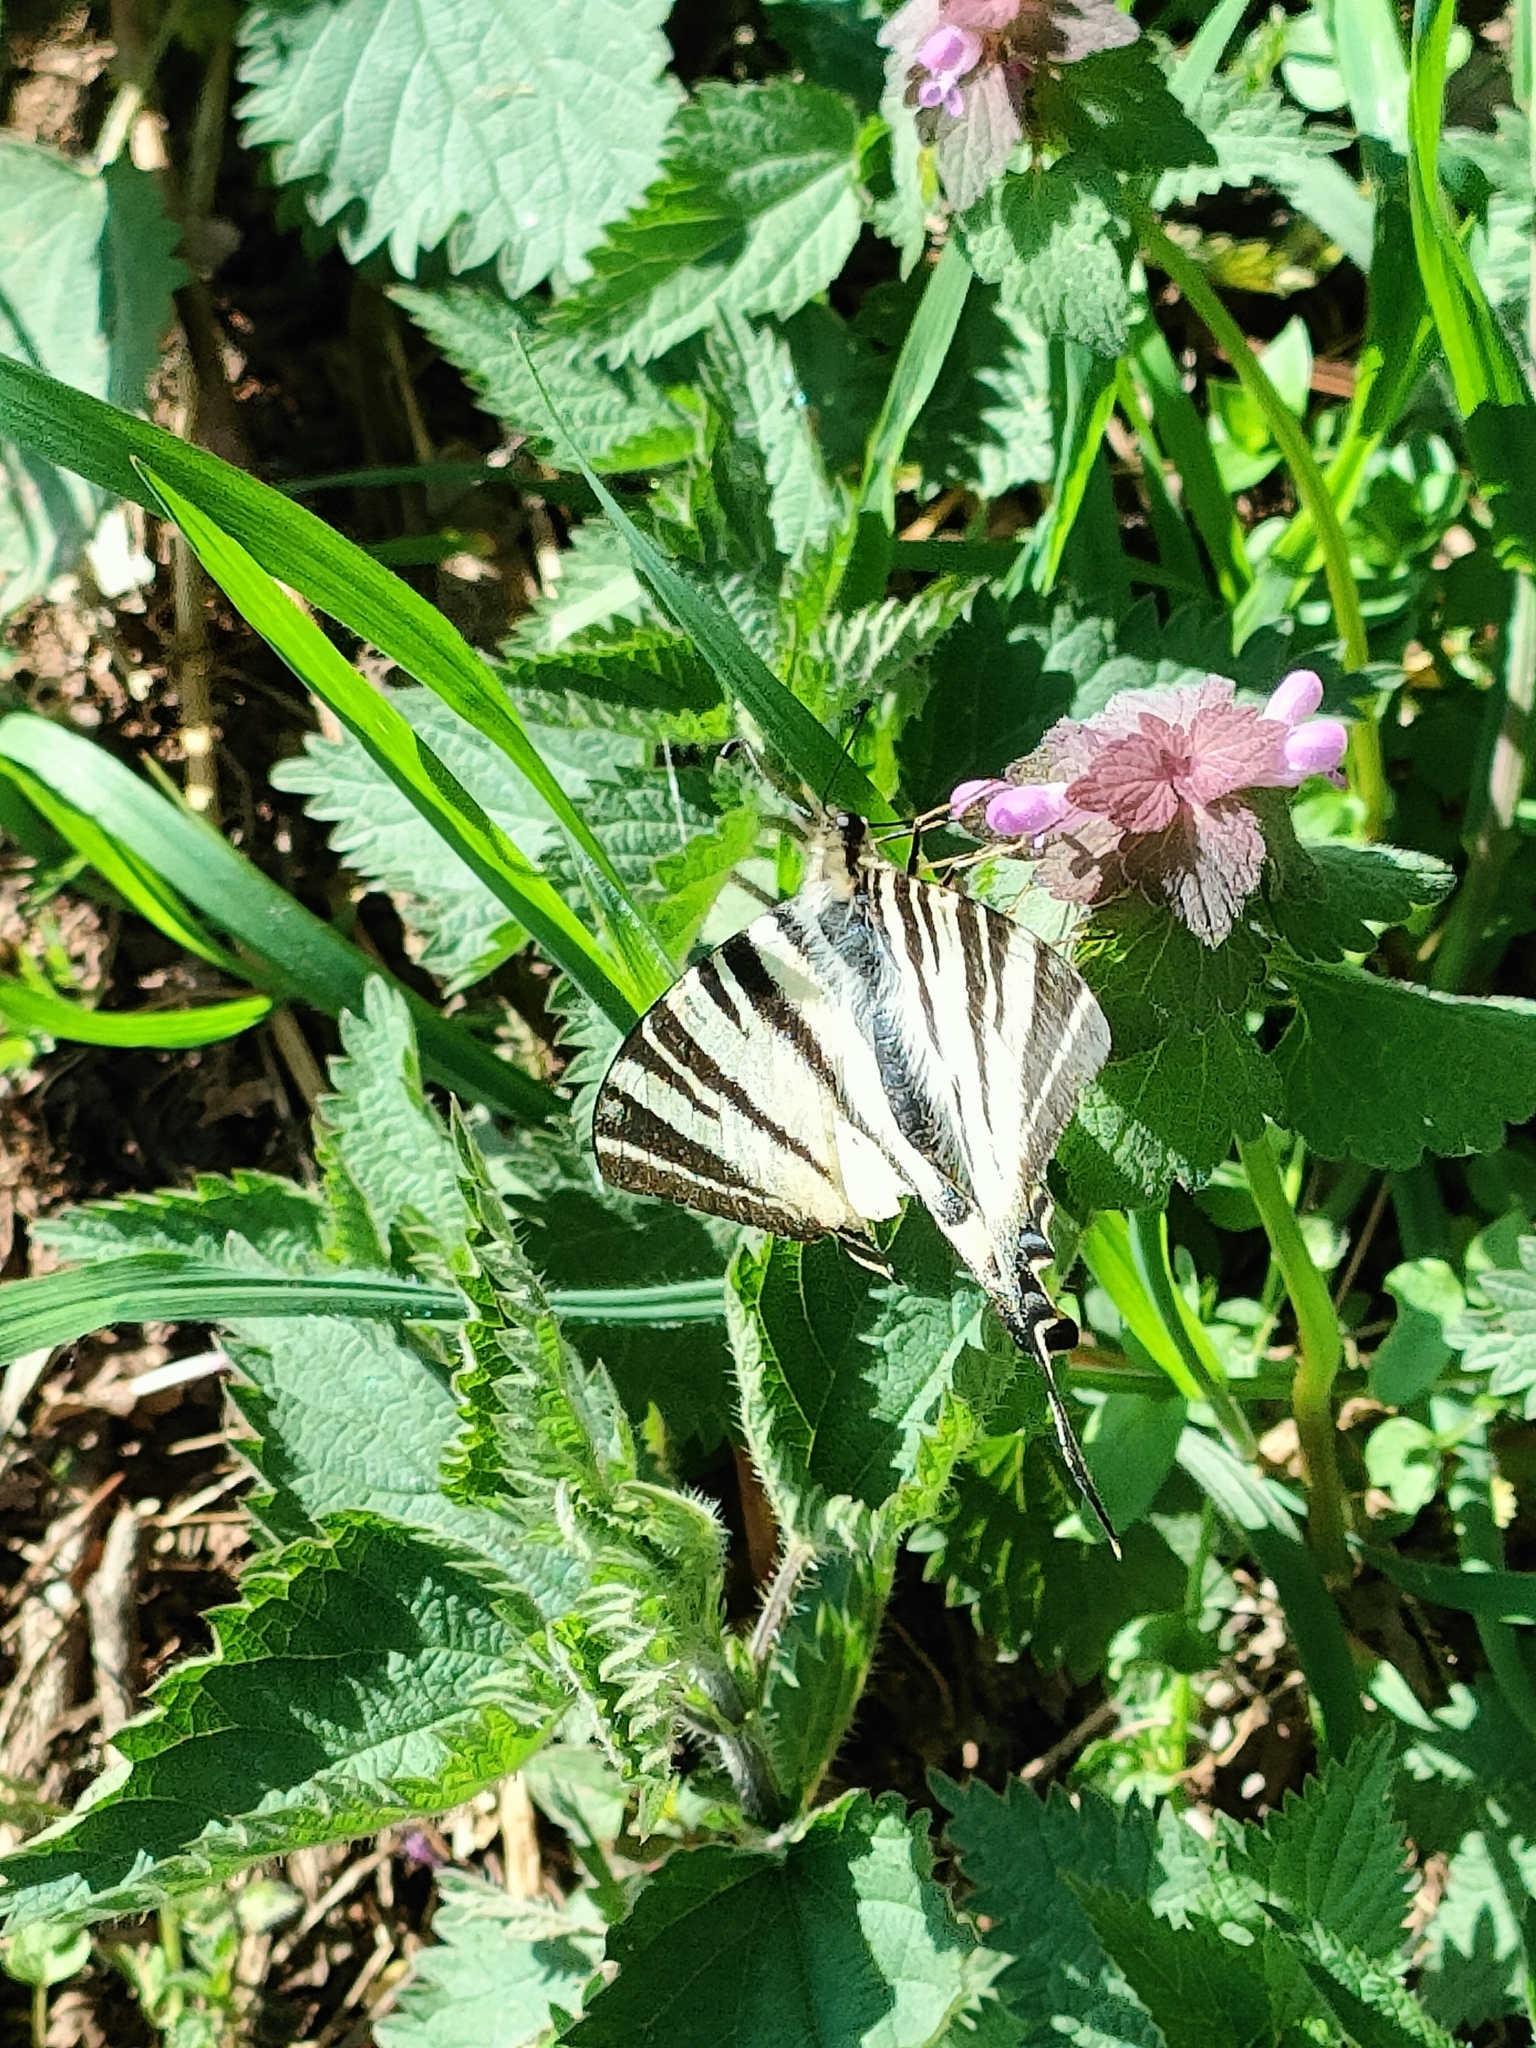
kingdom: Animalia
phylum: Arthropoda
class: Insecta
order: Lepidoptera
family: Papilionidae
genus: Iphiclides
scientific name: Iphiclides podalirius
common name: Scarce swallowtail
